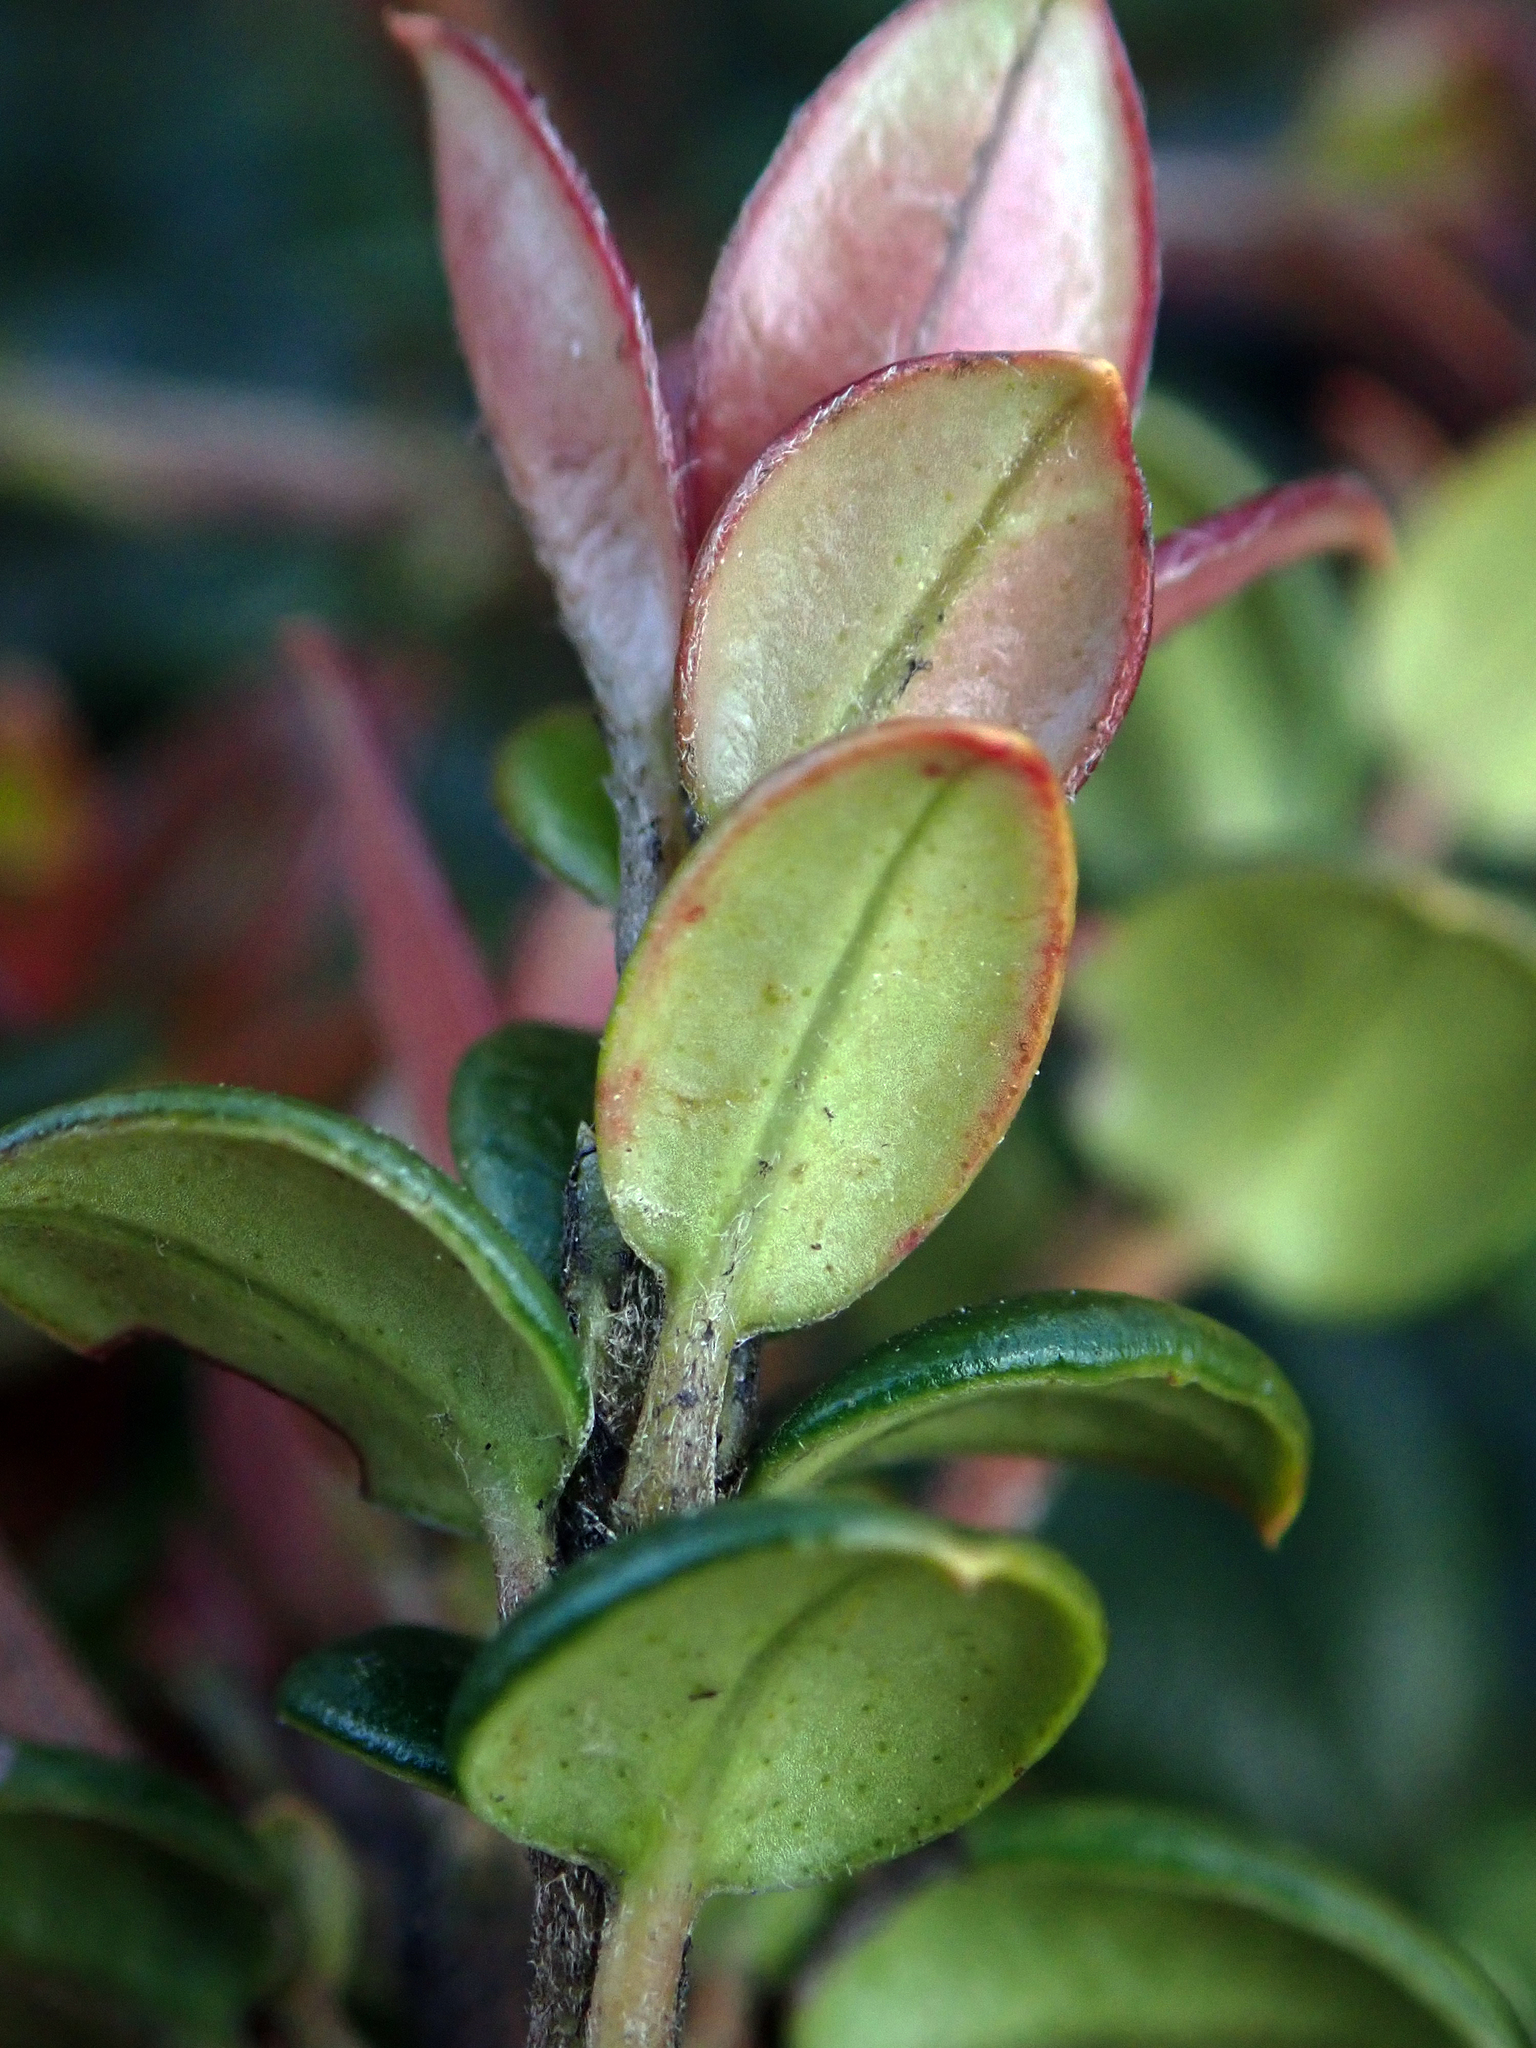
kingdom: Plantae
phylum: Tracheophyta
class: Magnoliopsida
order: Myrtales
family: Myrtaceae
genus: Ugni
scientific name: Ugni molinae
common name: Chilean-guava
